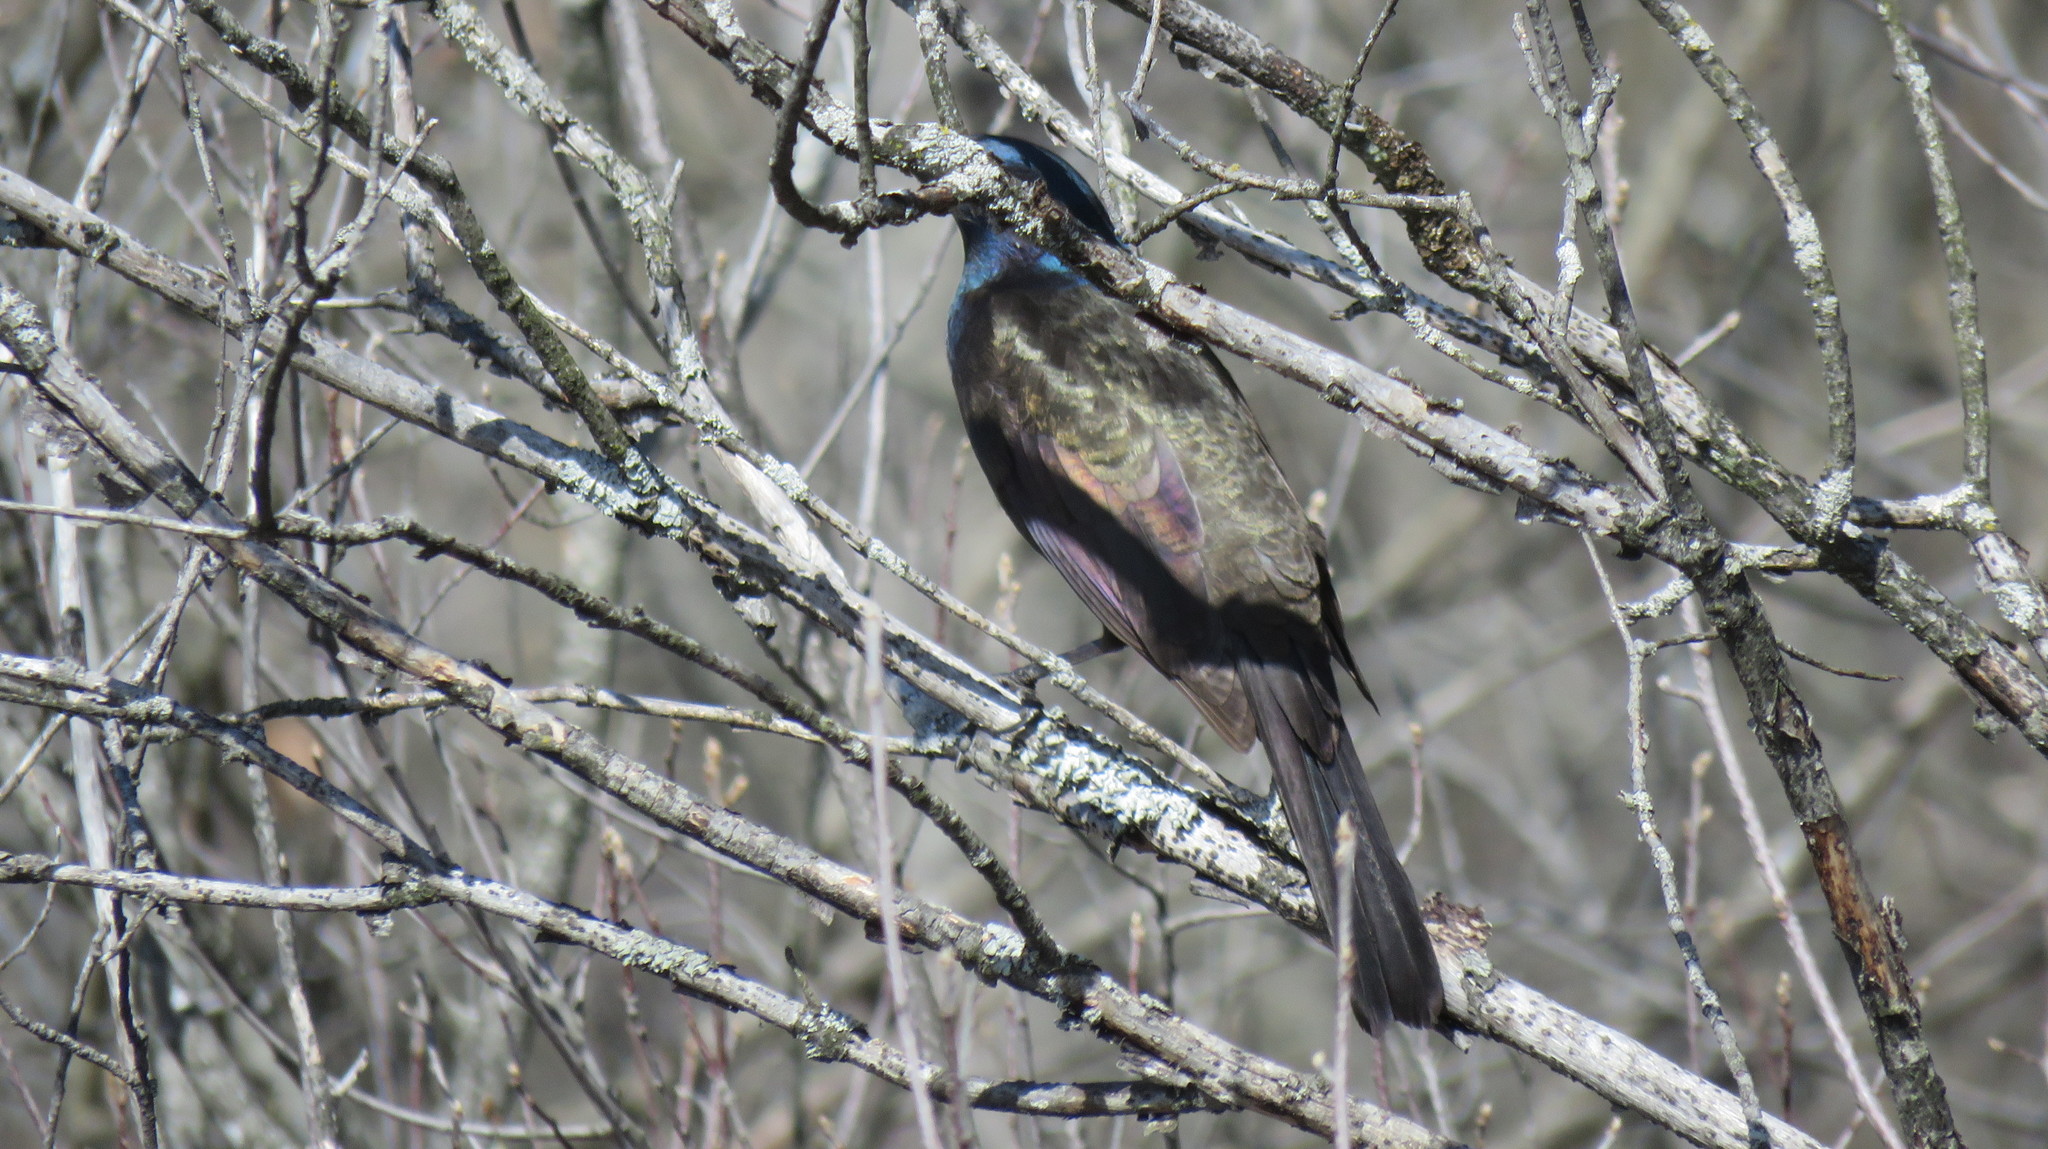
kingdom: Animalia
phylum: Chordata
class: Aves
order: Passeriformes
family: Icteridae
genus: Quiscalus
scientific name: Quiscalus quiscula
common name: Common grackle
